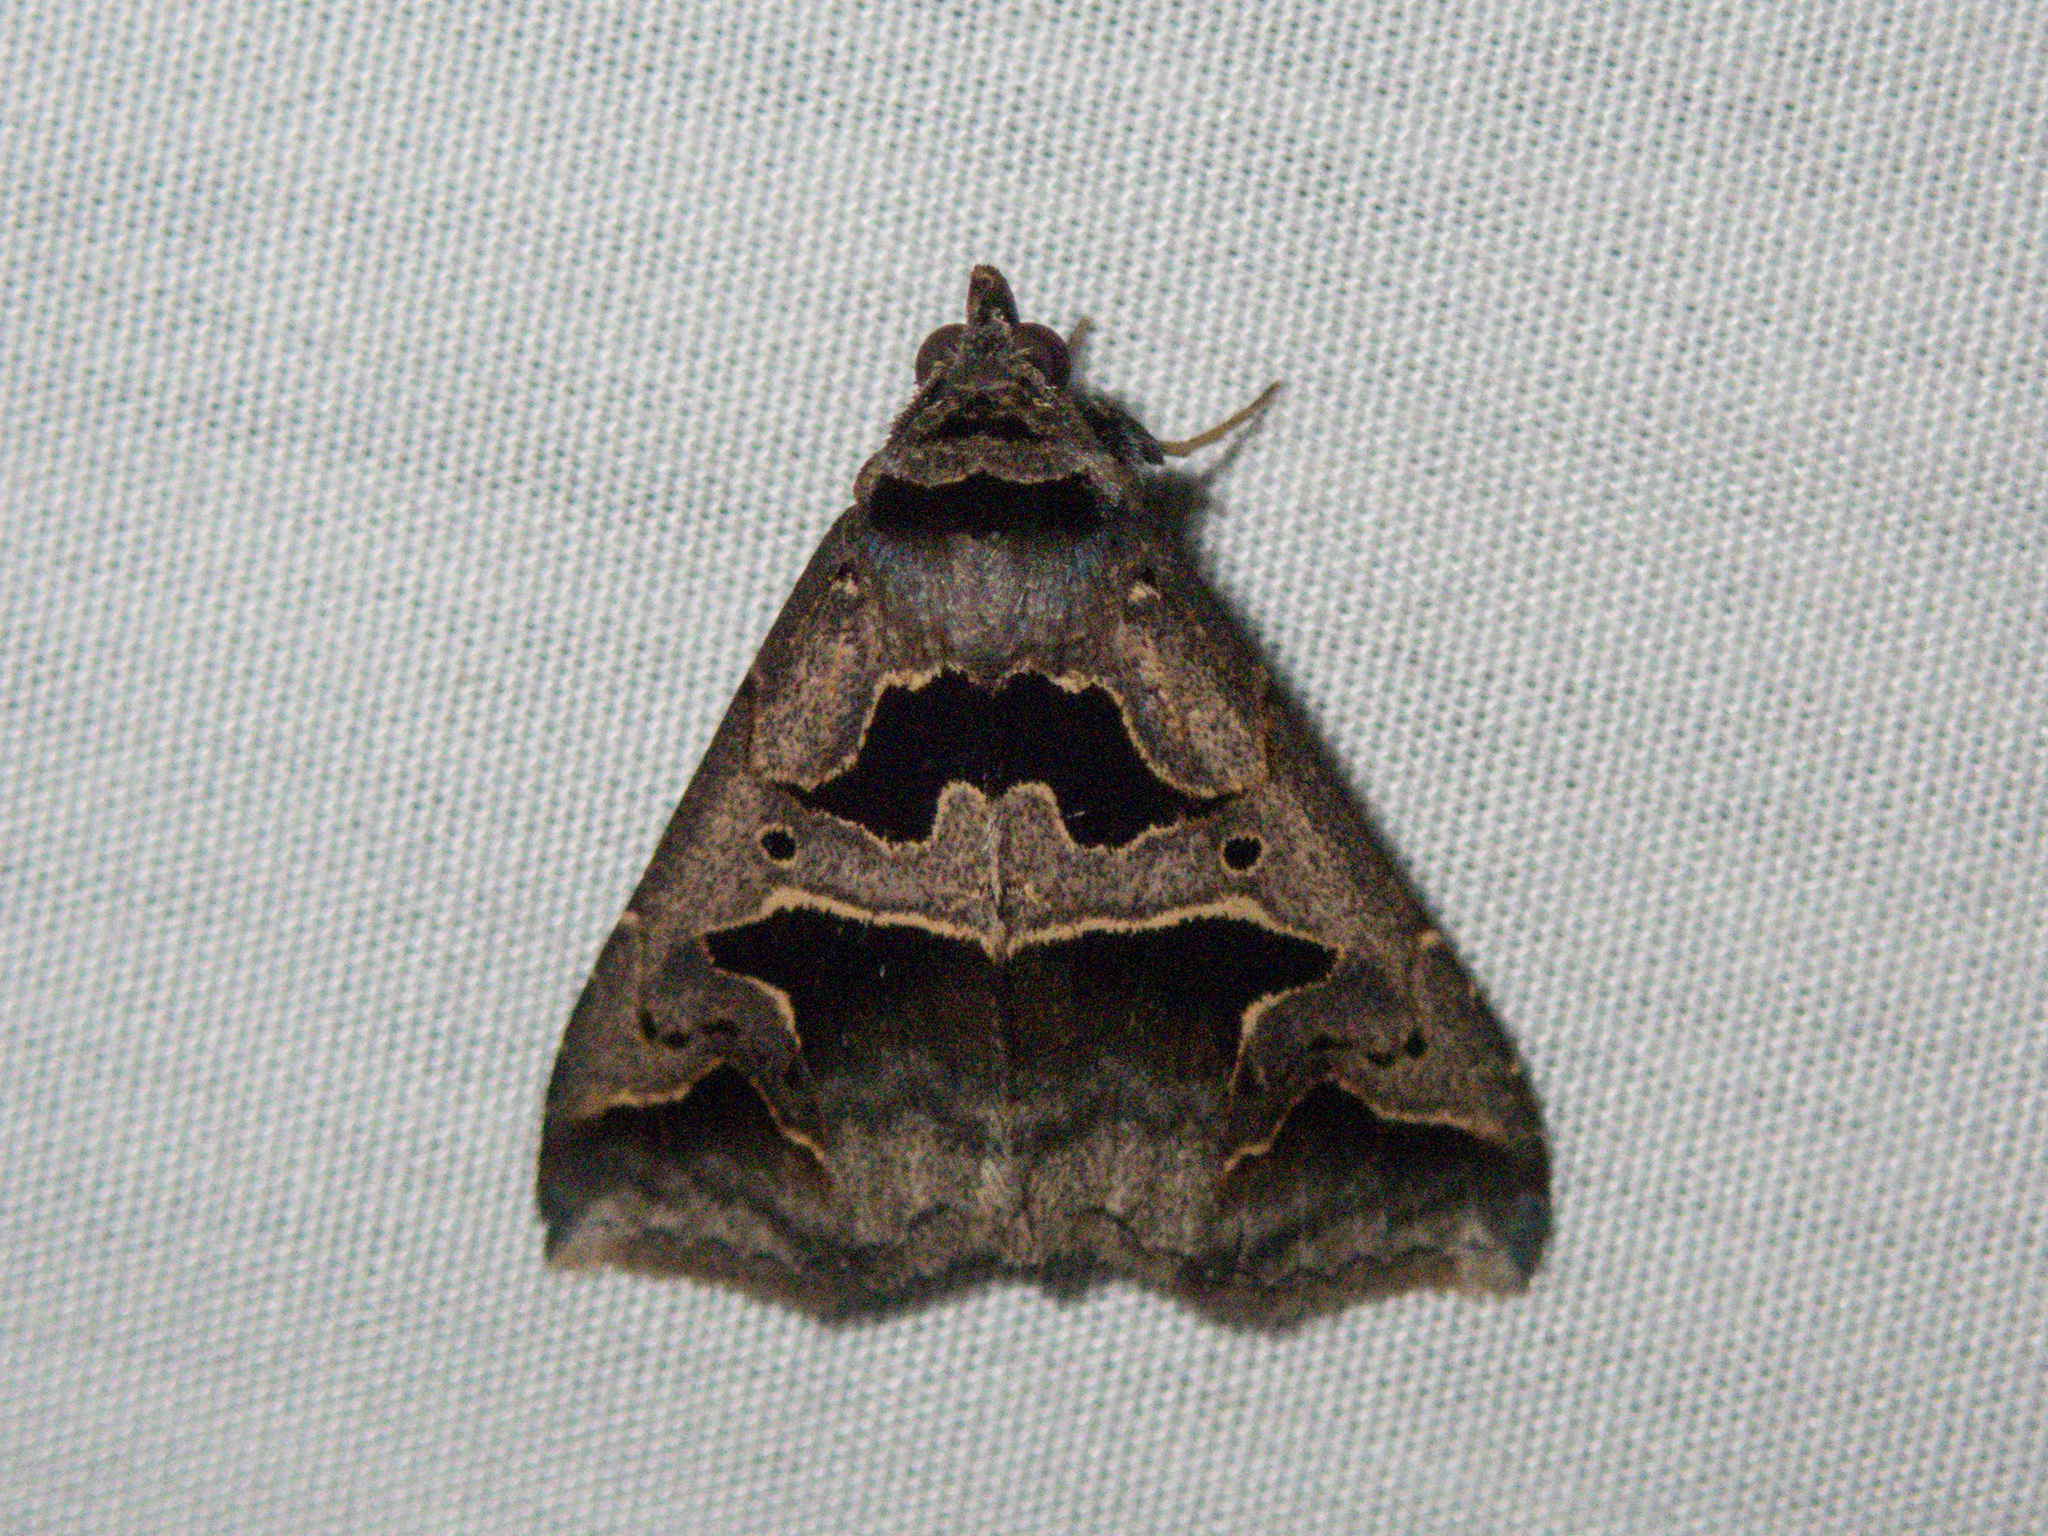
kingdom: Animalia
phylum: Arthropoda
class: Insecta
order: Lepidoptera
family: Erebidae
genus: Tephriopis
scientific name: Tephriopis divulsa
